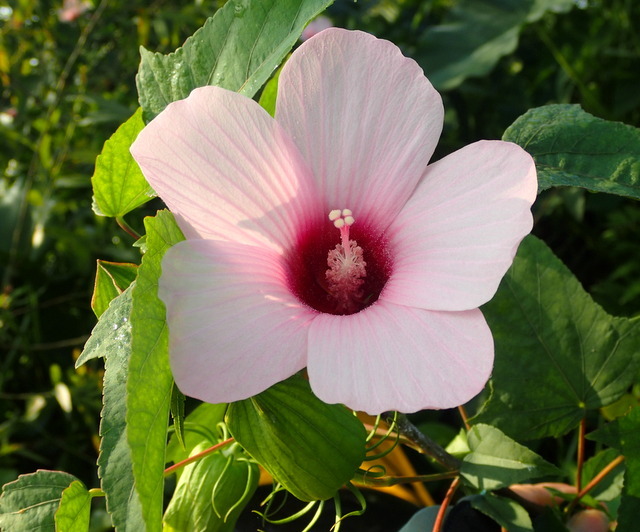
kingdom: Plantae
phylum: Tracheophyta
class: Magnoliopsida
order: Malvales
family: Malvaceae
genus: Hibiscus
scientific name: Hibiscus laevis
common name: Scarlet rose-mallow
